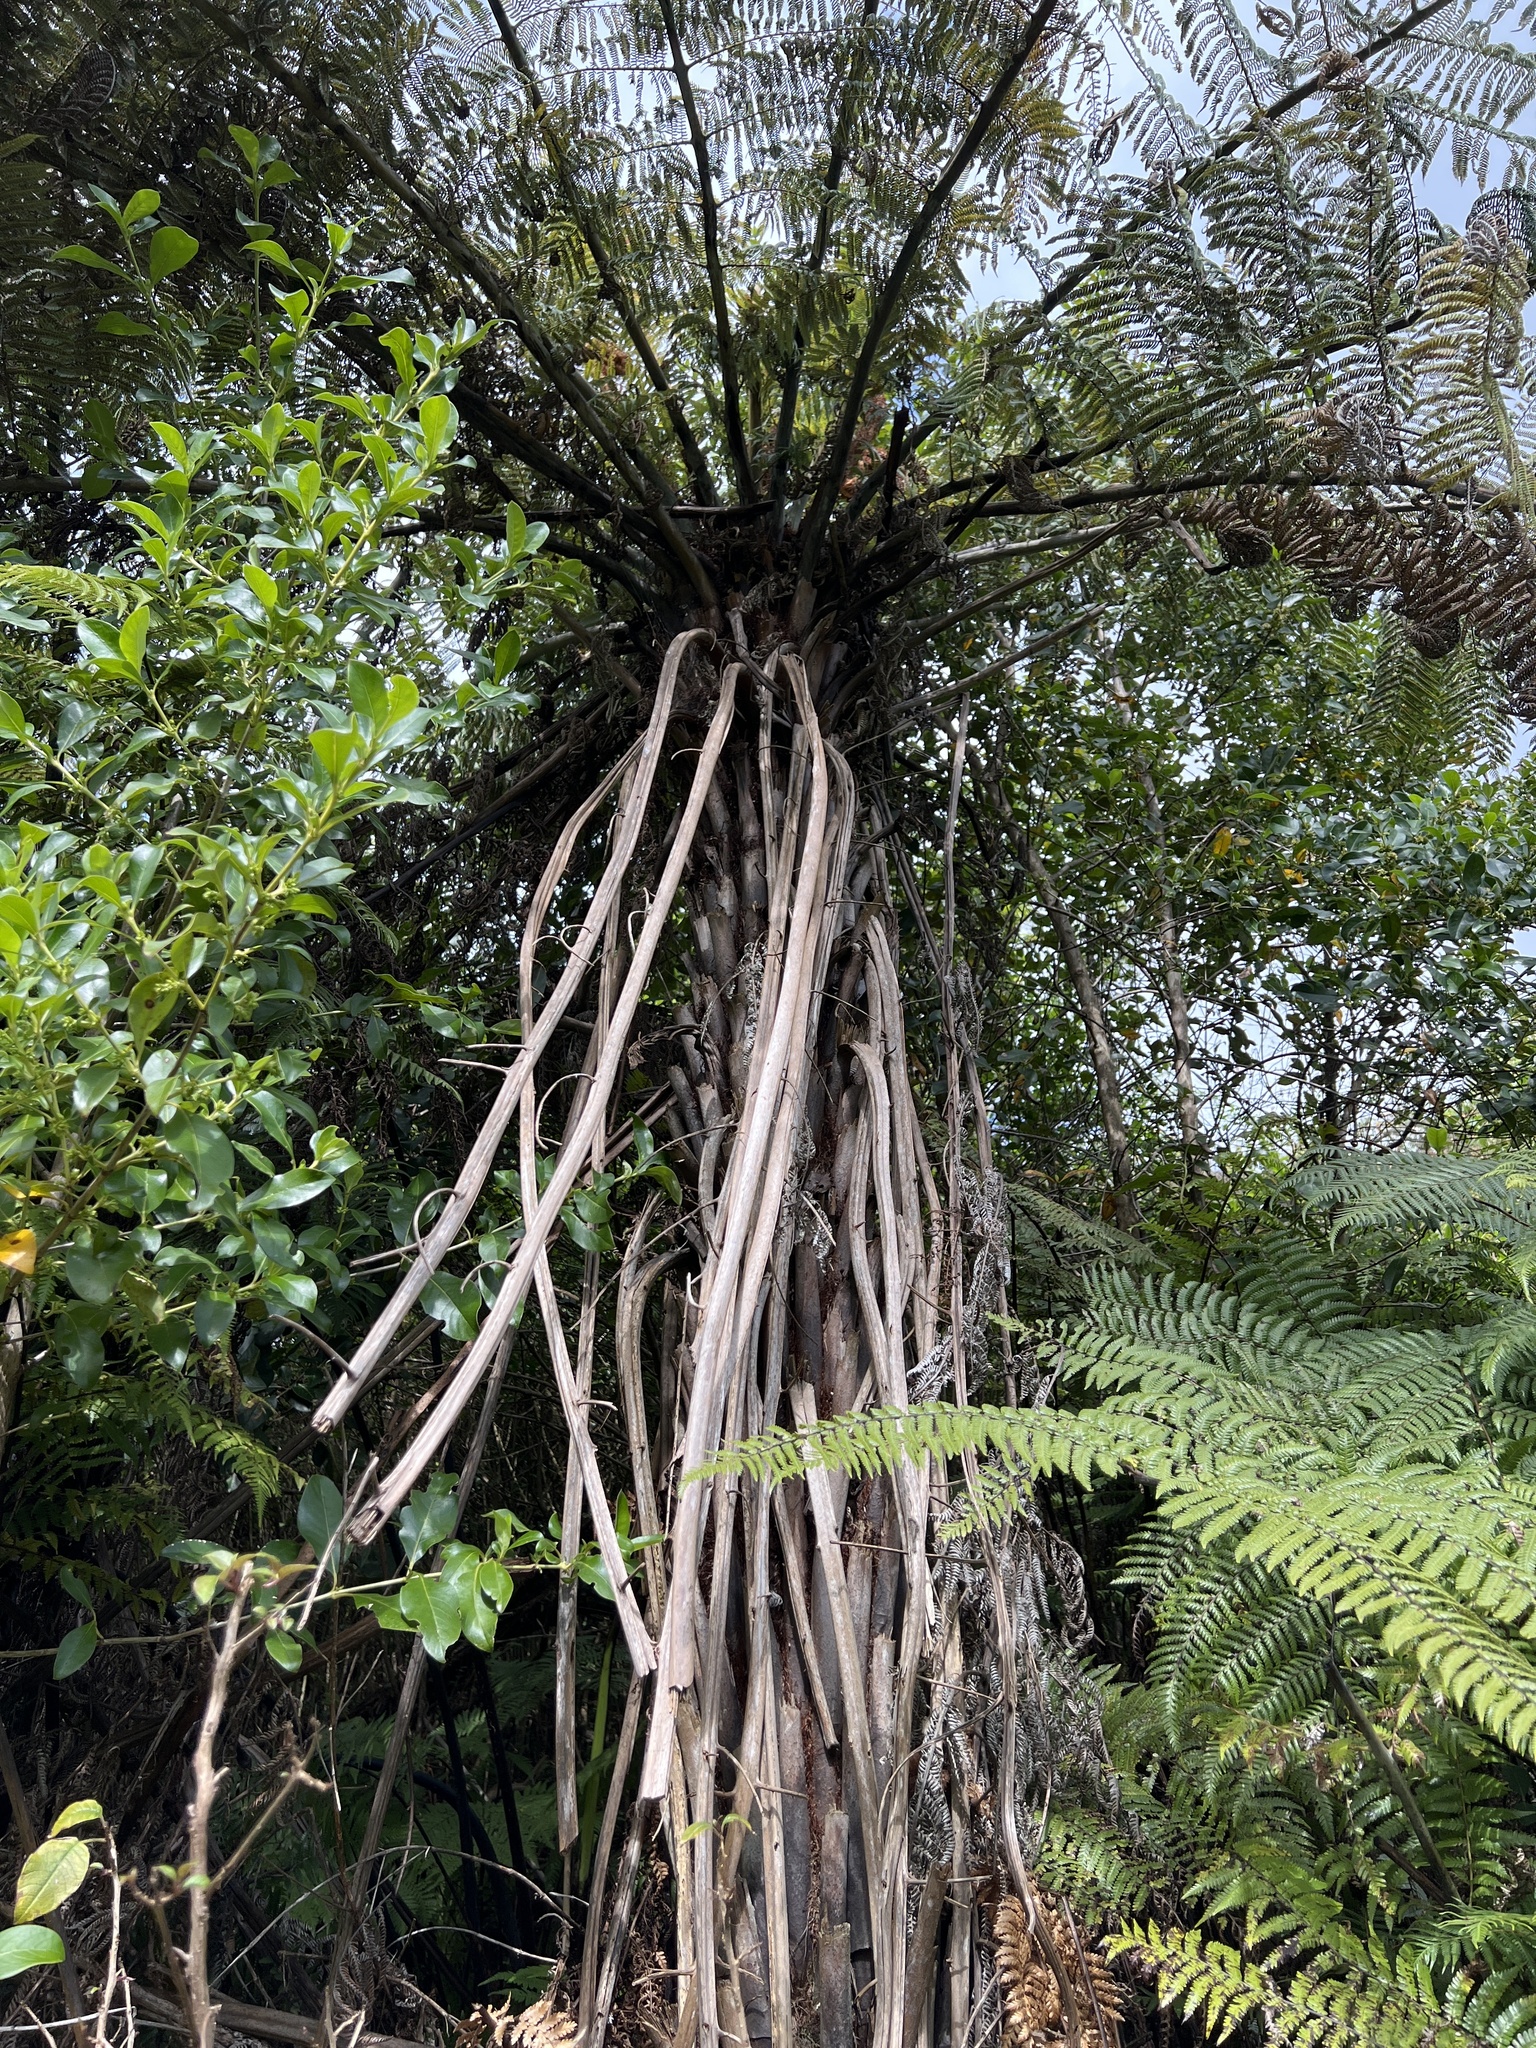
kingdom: Plantae
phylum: Tracheophyta
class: Polypodiopsida
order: Cyatheales
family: Cyatheaceae
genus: Alsophila
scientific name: Alsophila dealbata
